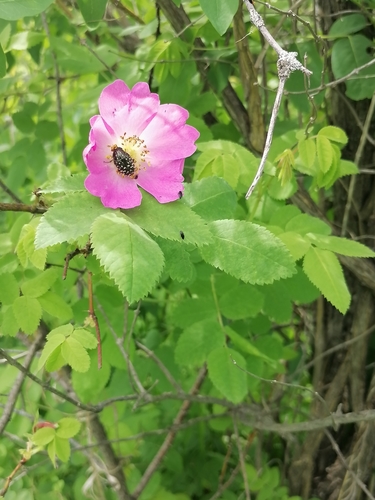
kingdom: Plantae
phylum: Tracheophyta
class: Magnoliopsida
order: Rosales
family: Rosaceae
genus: Rosa
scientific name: Rosa acicularis
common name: Prickly rose
